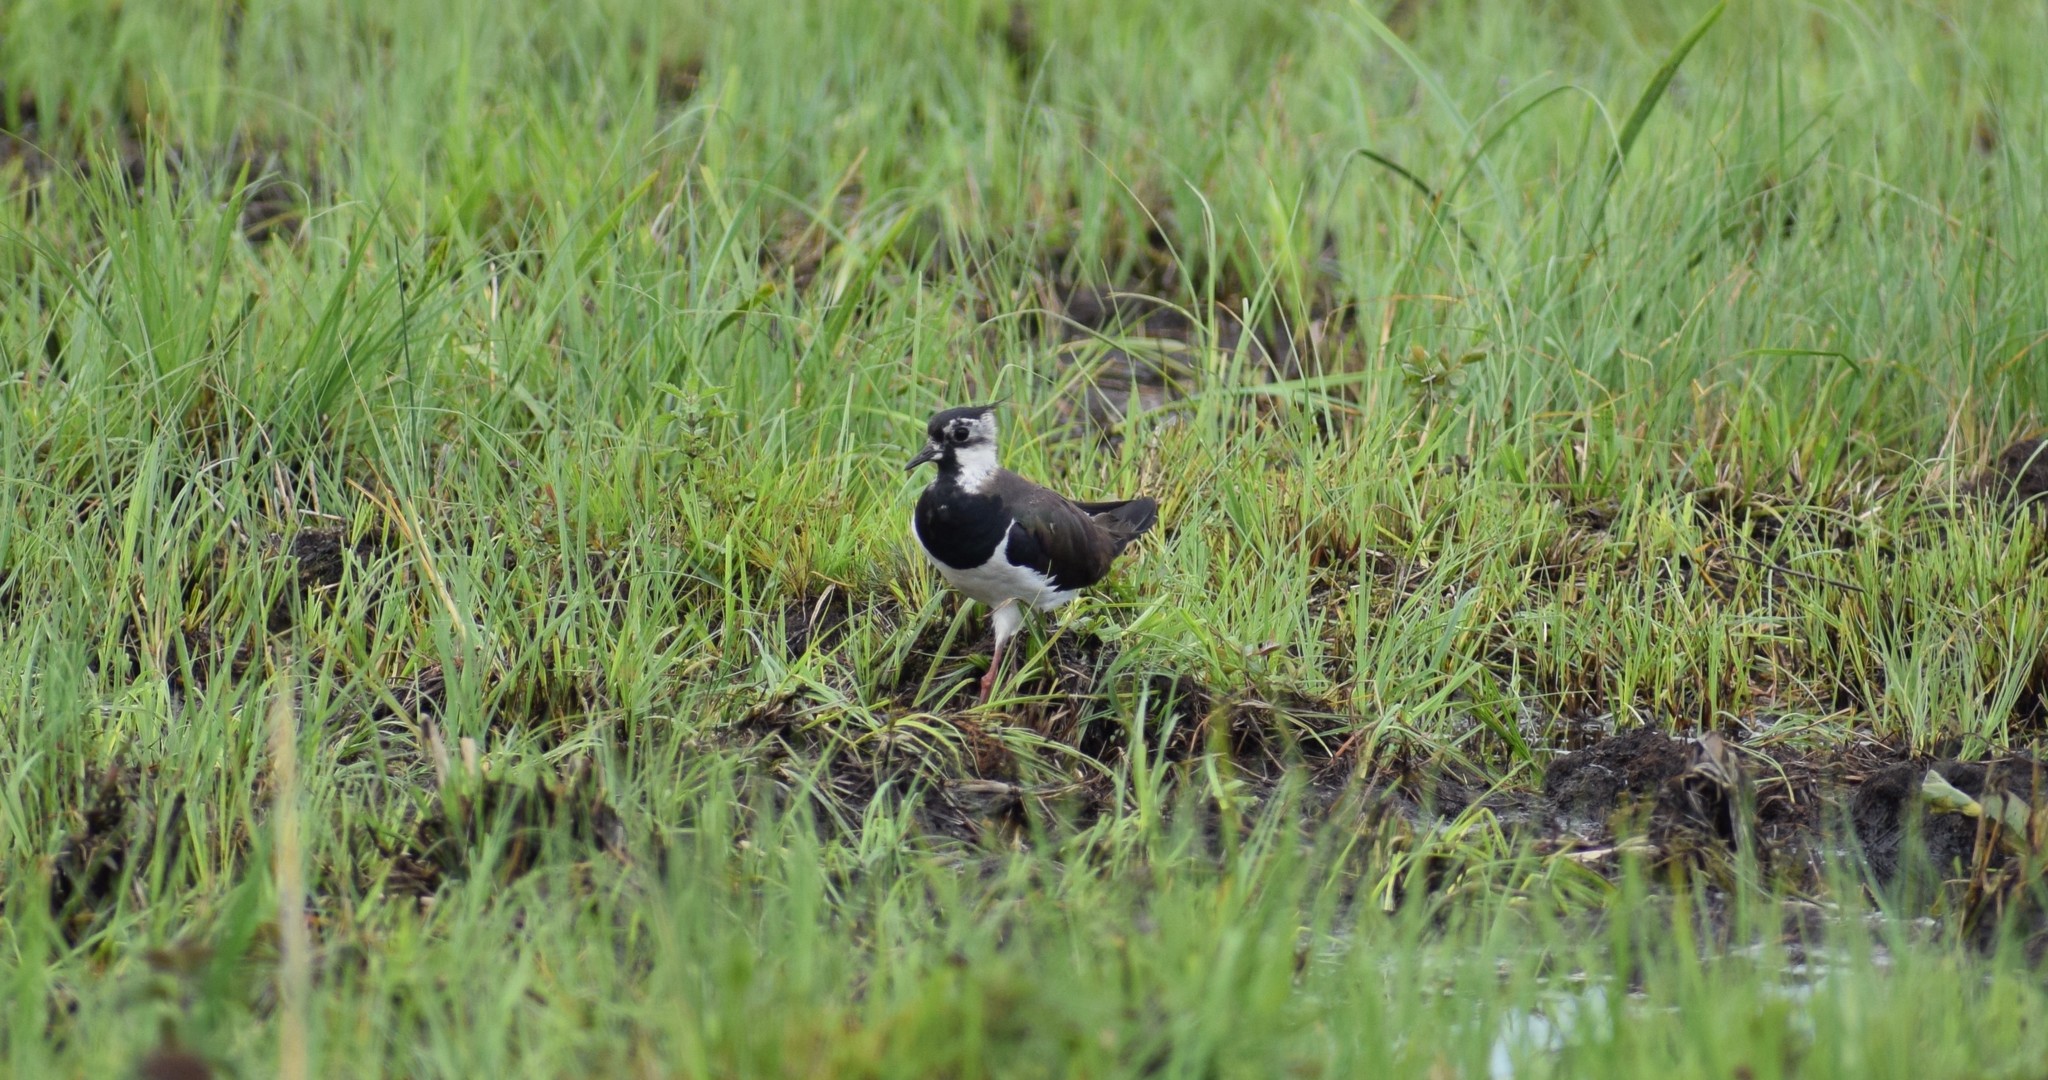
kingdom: Animalia
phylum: Chordata
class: Aves
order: Charadriiformes
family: Charadriidae
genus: Vanellus
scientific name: Vanellus vanellus
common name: Northern lapwing
